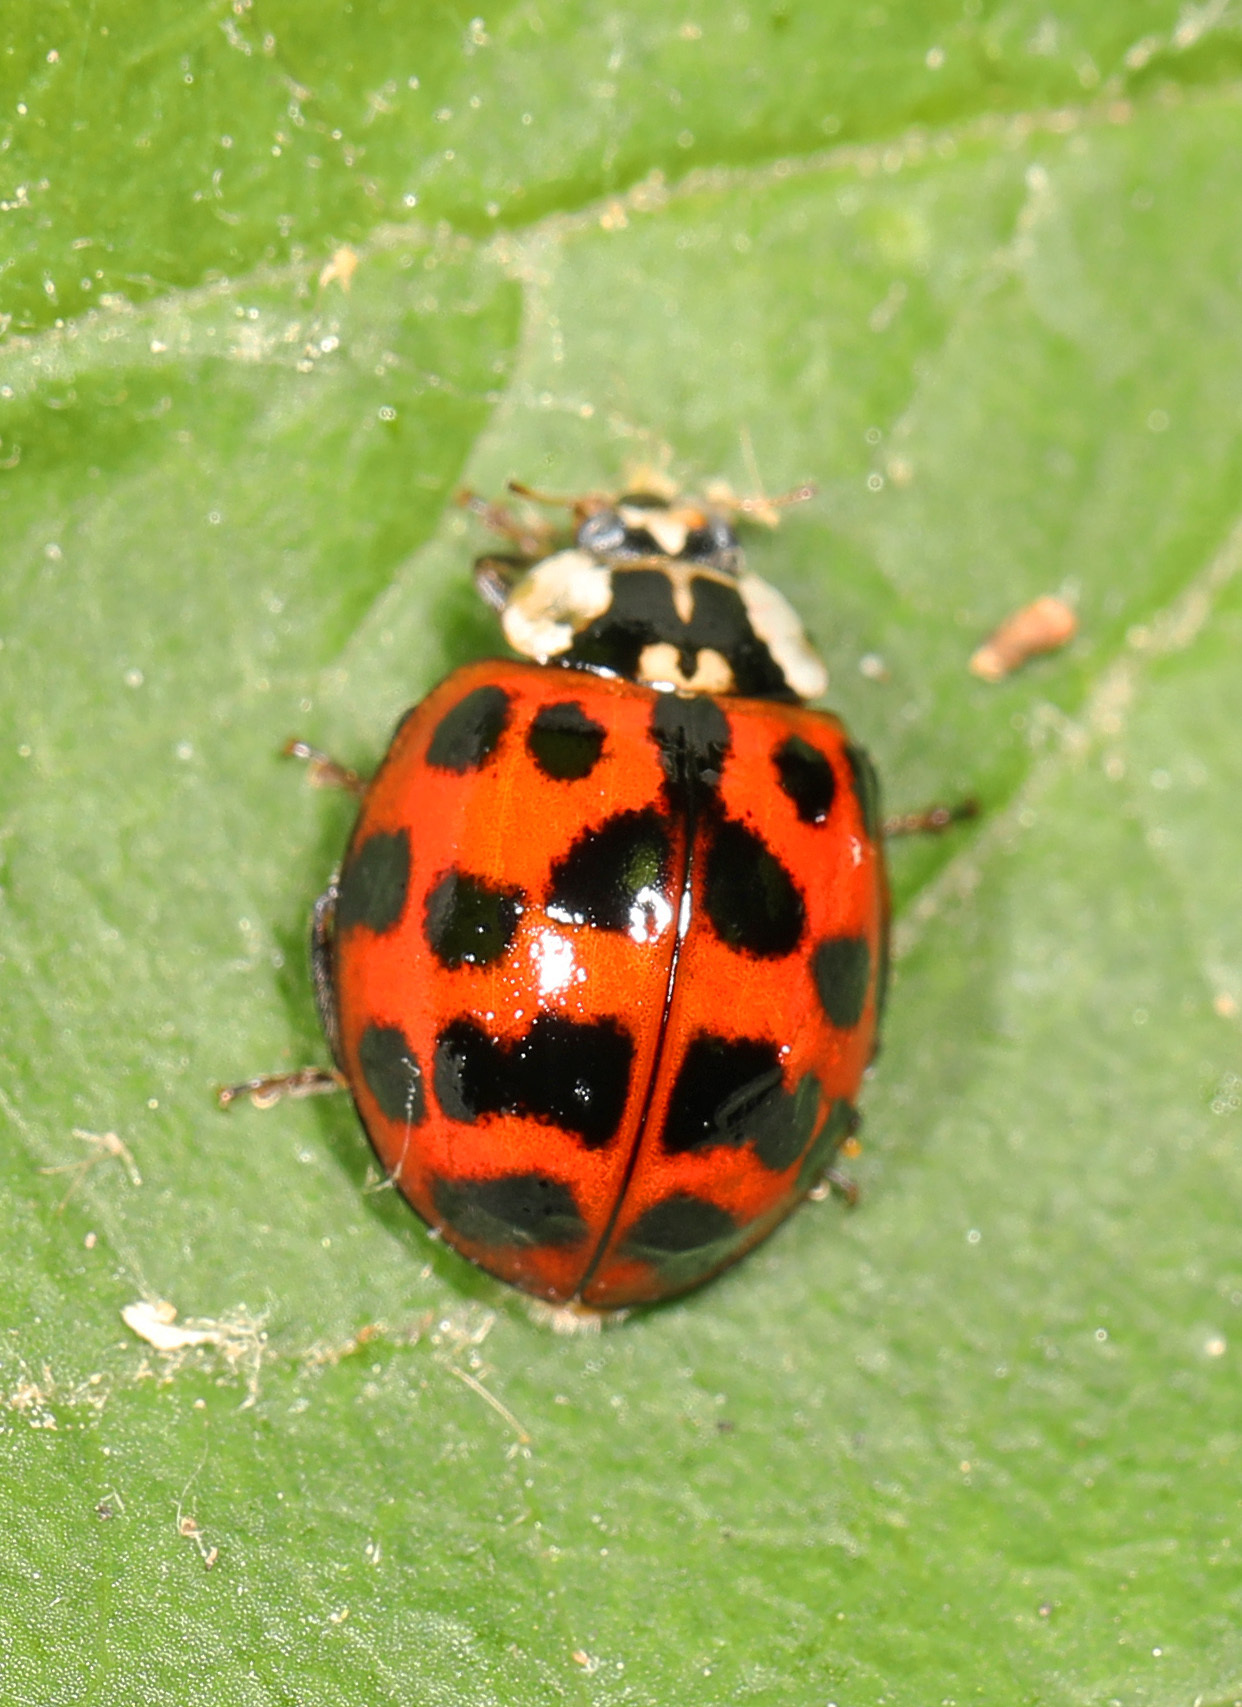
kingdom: Animalia
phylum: Arthropoda
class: Insecta
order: Coleoptera
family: Coccinellidae
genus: Harmonia
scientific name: Harmonia axyridis
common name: Harlequin ladybird
